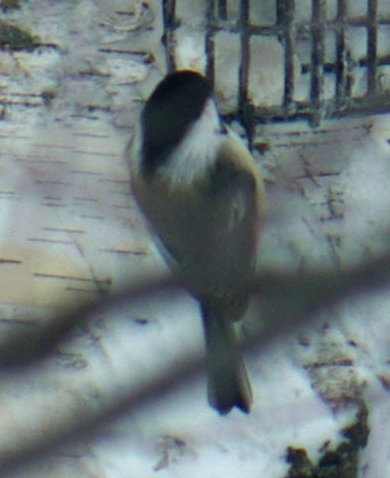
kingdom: Animalia
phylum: Chordata
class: Aves
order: Passeriformes
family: Paridae
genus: Poecile
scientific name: Poecile atricapillus
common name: Black-capped chickadee
